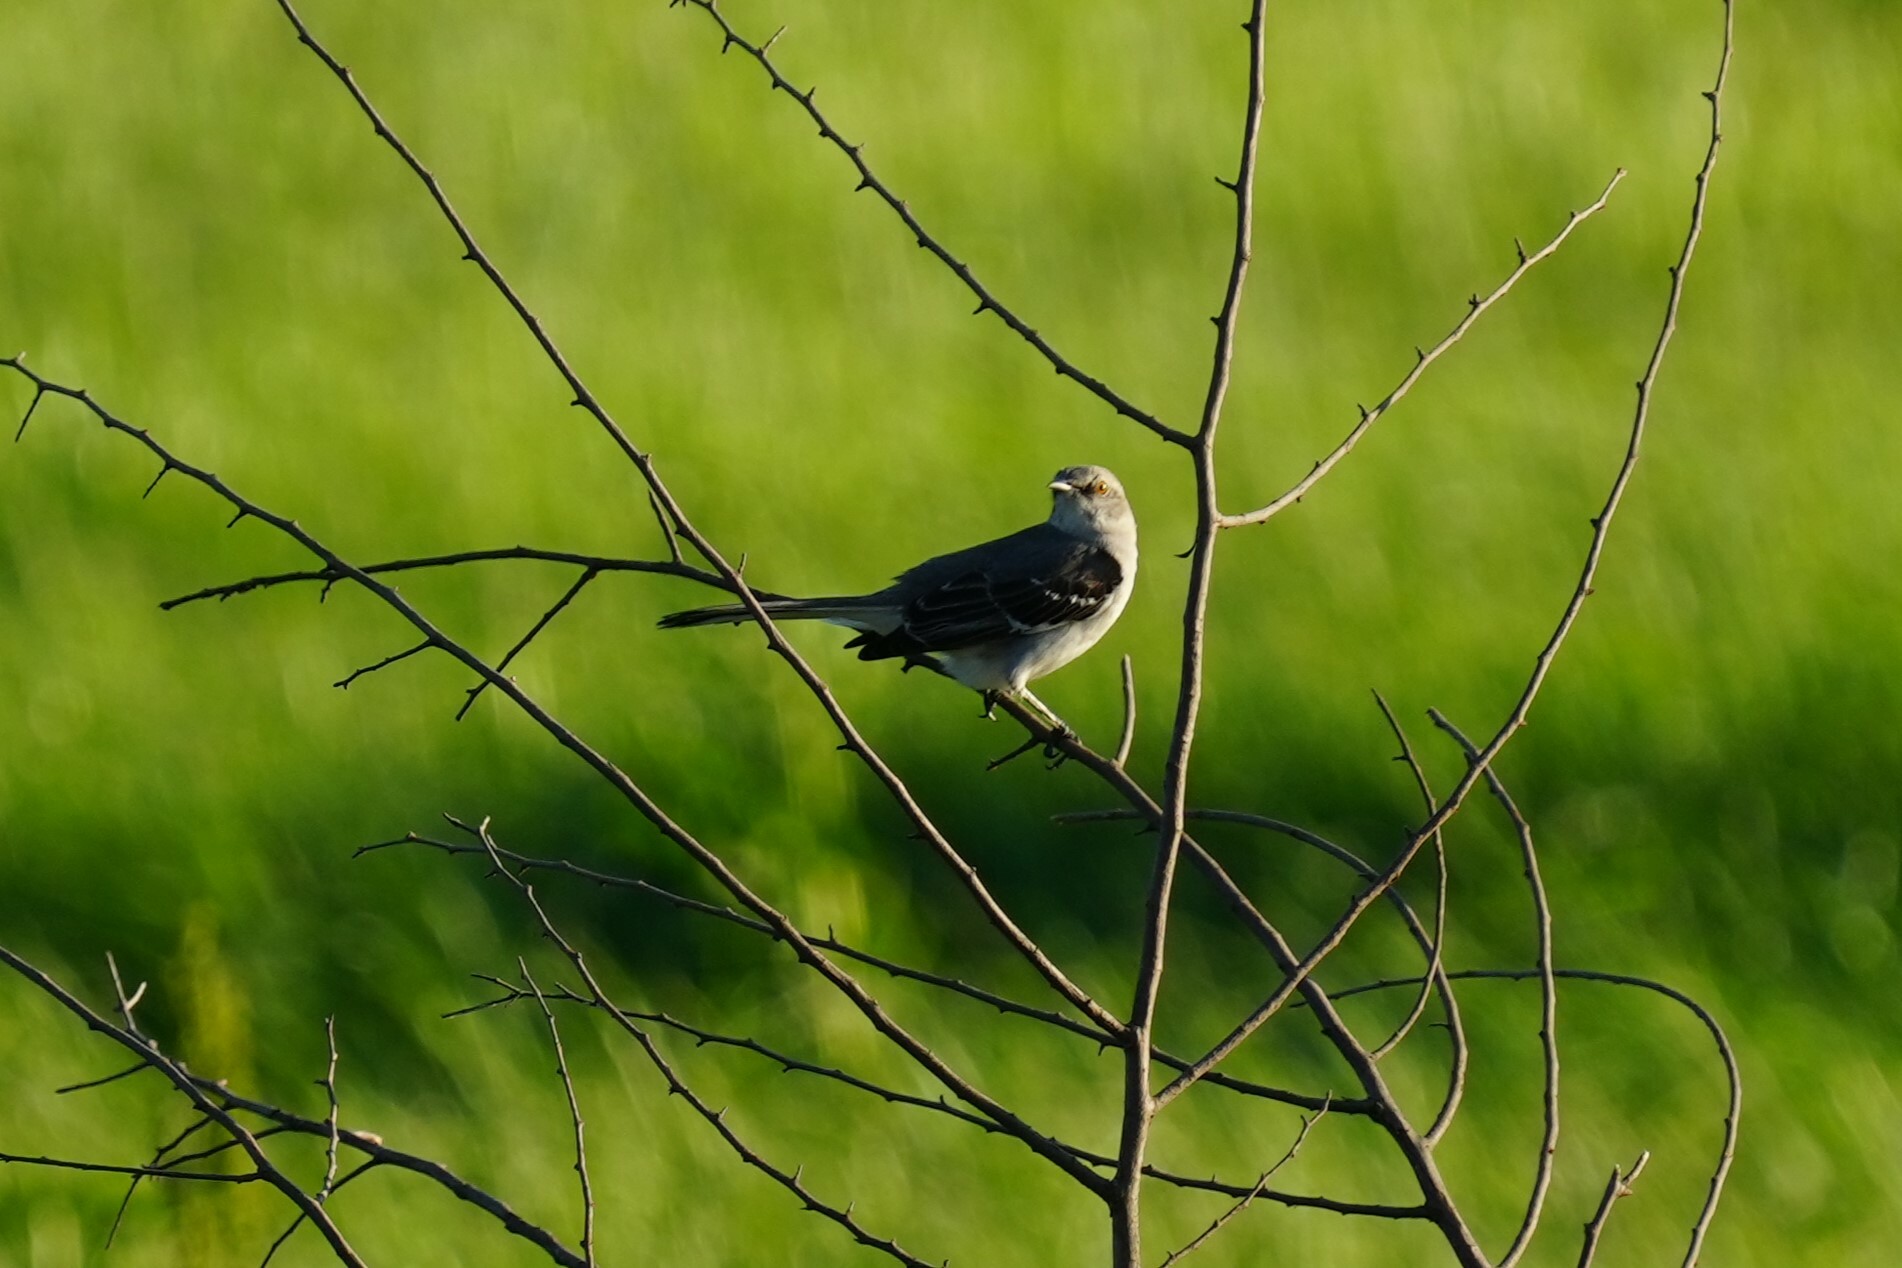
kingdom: Animalia
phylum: Chordata
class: Aves
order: Passeriformes
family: Mimidae
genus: Mimus
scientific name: Mimus polyglottos
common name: Northern mockingbird
